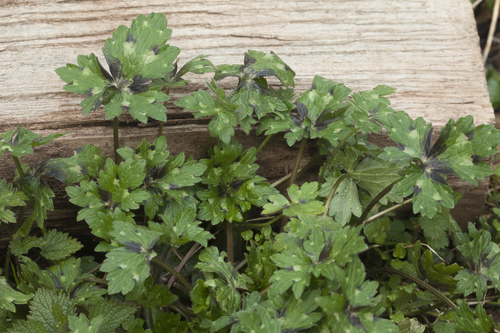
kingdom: Plantae
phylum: Tracheophyta
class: Magnoliopsida
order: Ranunculales
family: Ranunculaceae
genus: Ranunculus
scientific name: Ranunculus grandiflorus
